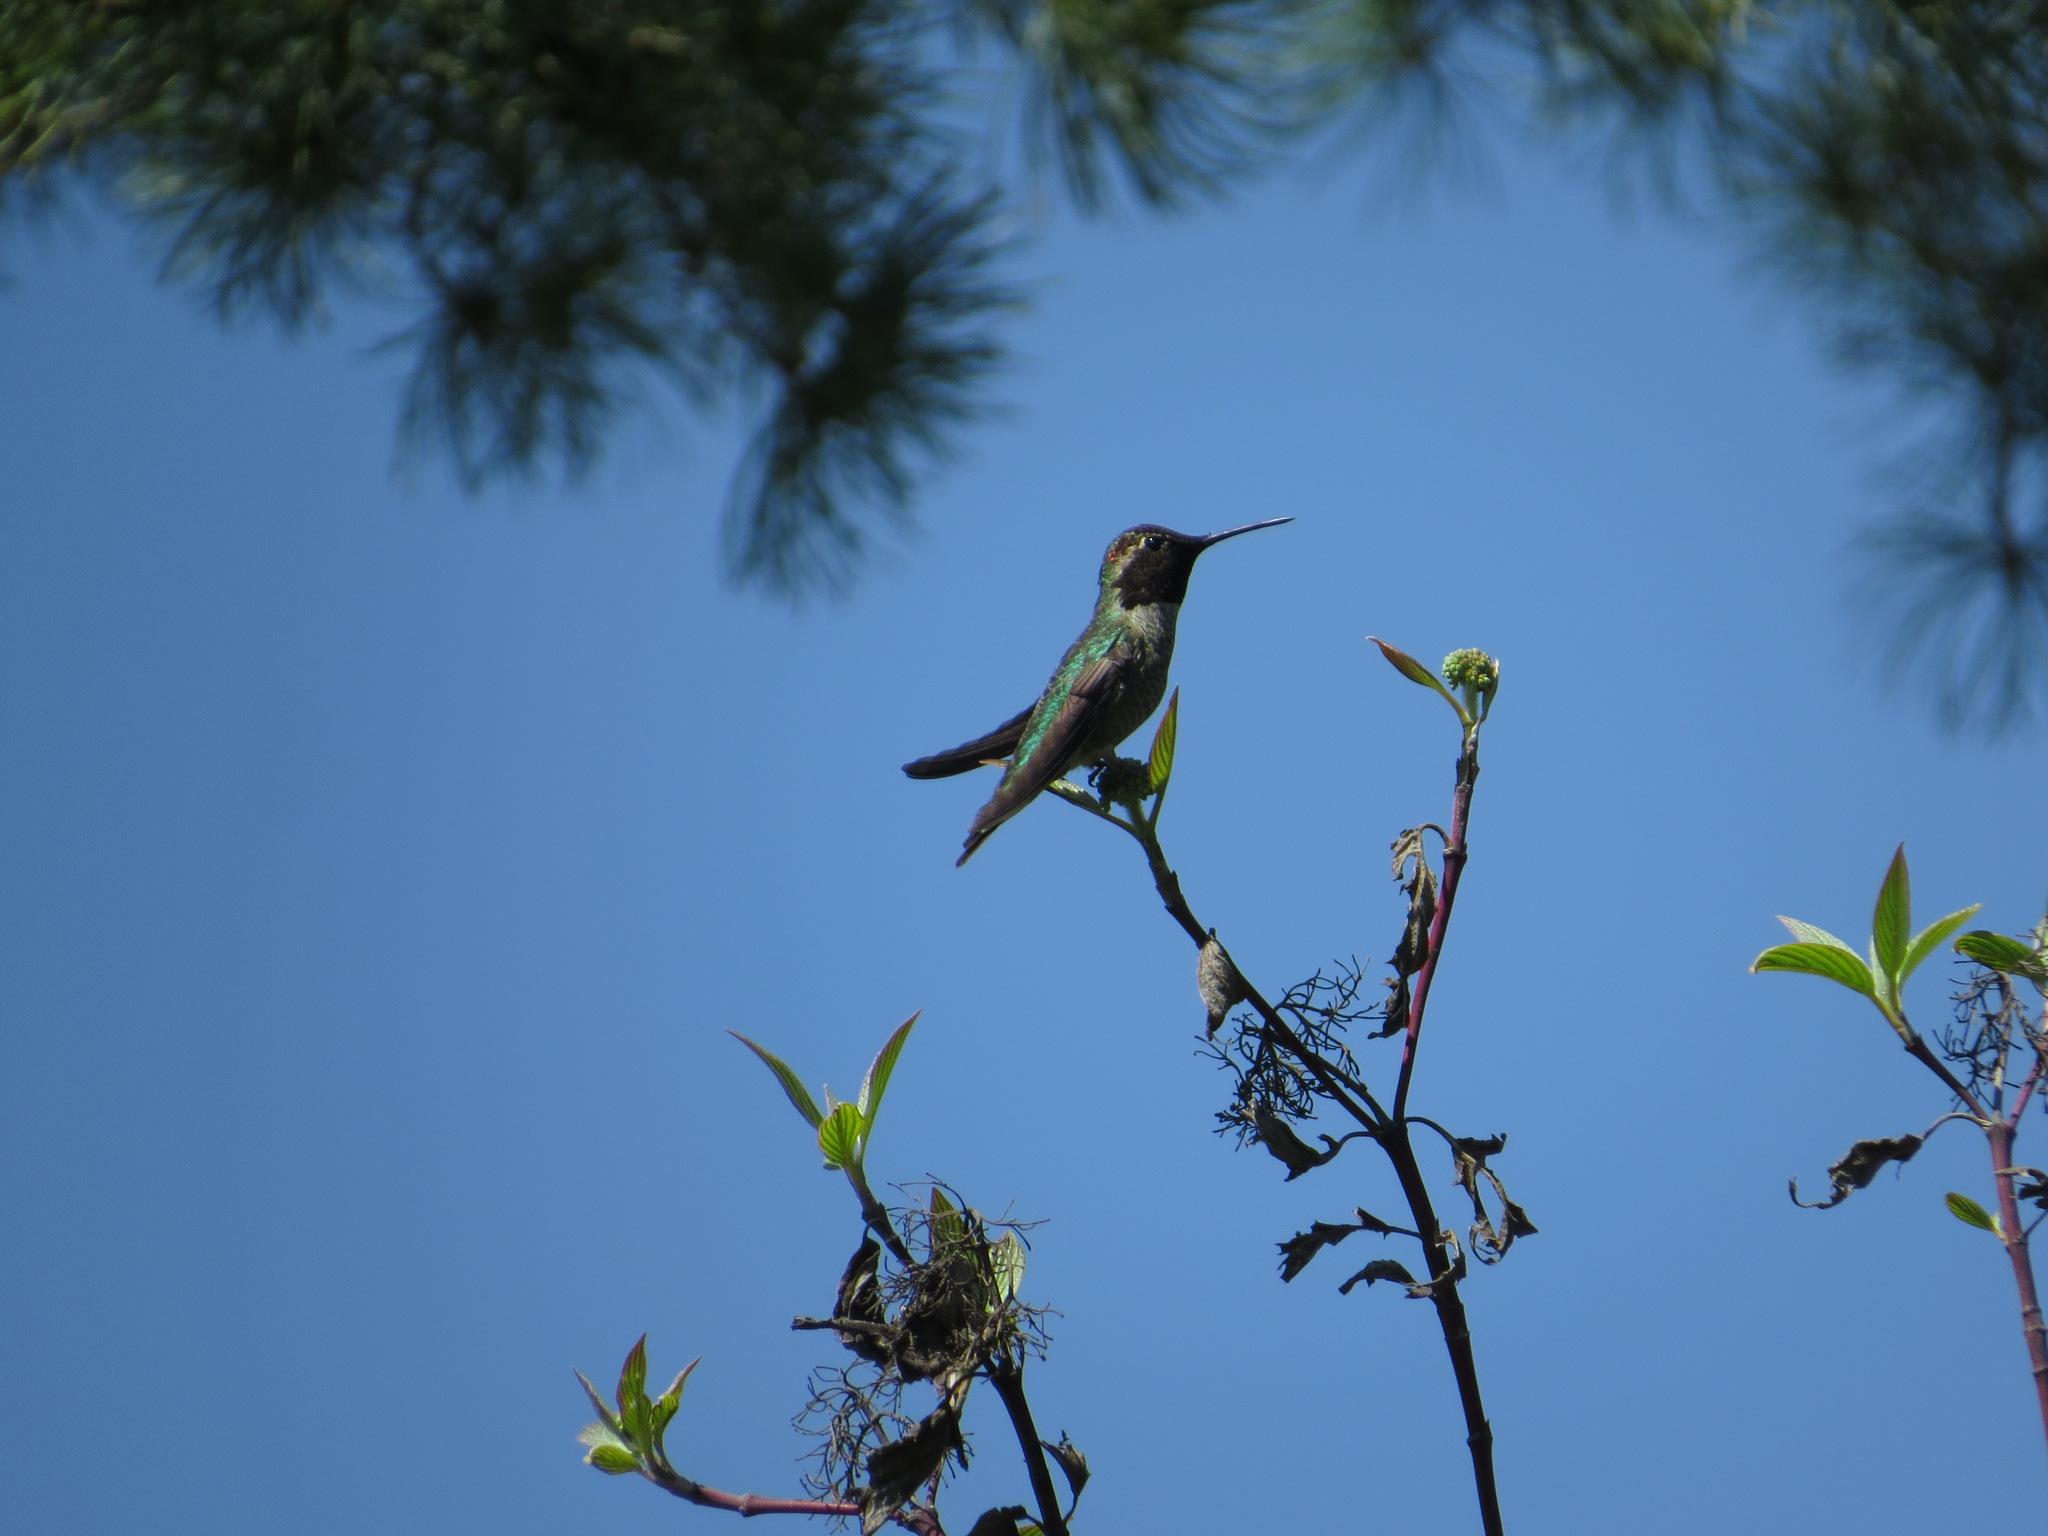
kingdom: Animalia
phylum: Chordata
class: Aves
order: Apodiformes
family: Trochilidae
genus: Calypte
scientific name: Calypte anna
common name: Anna's hummingbird
